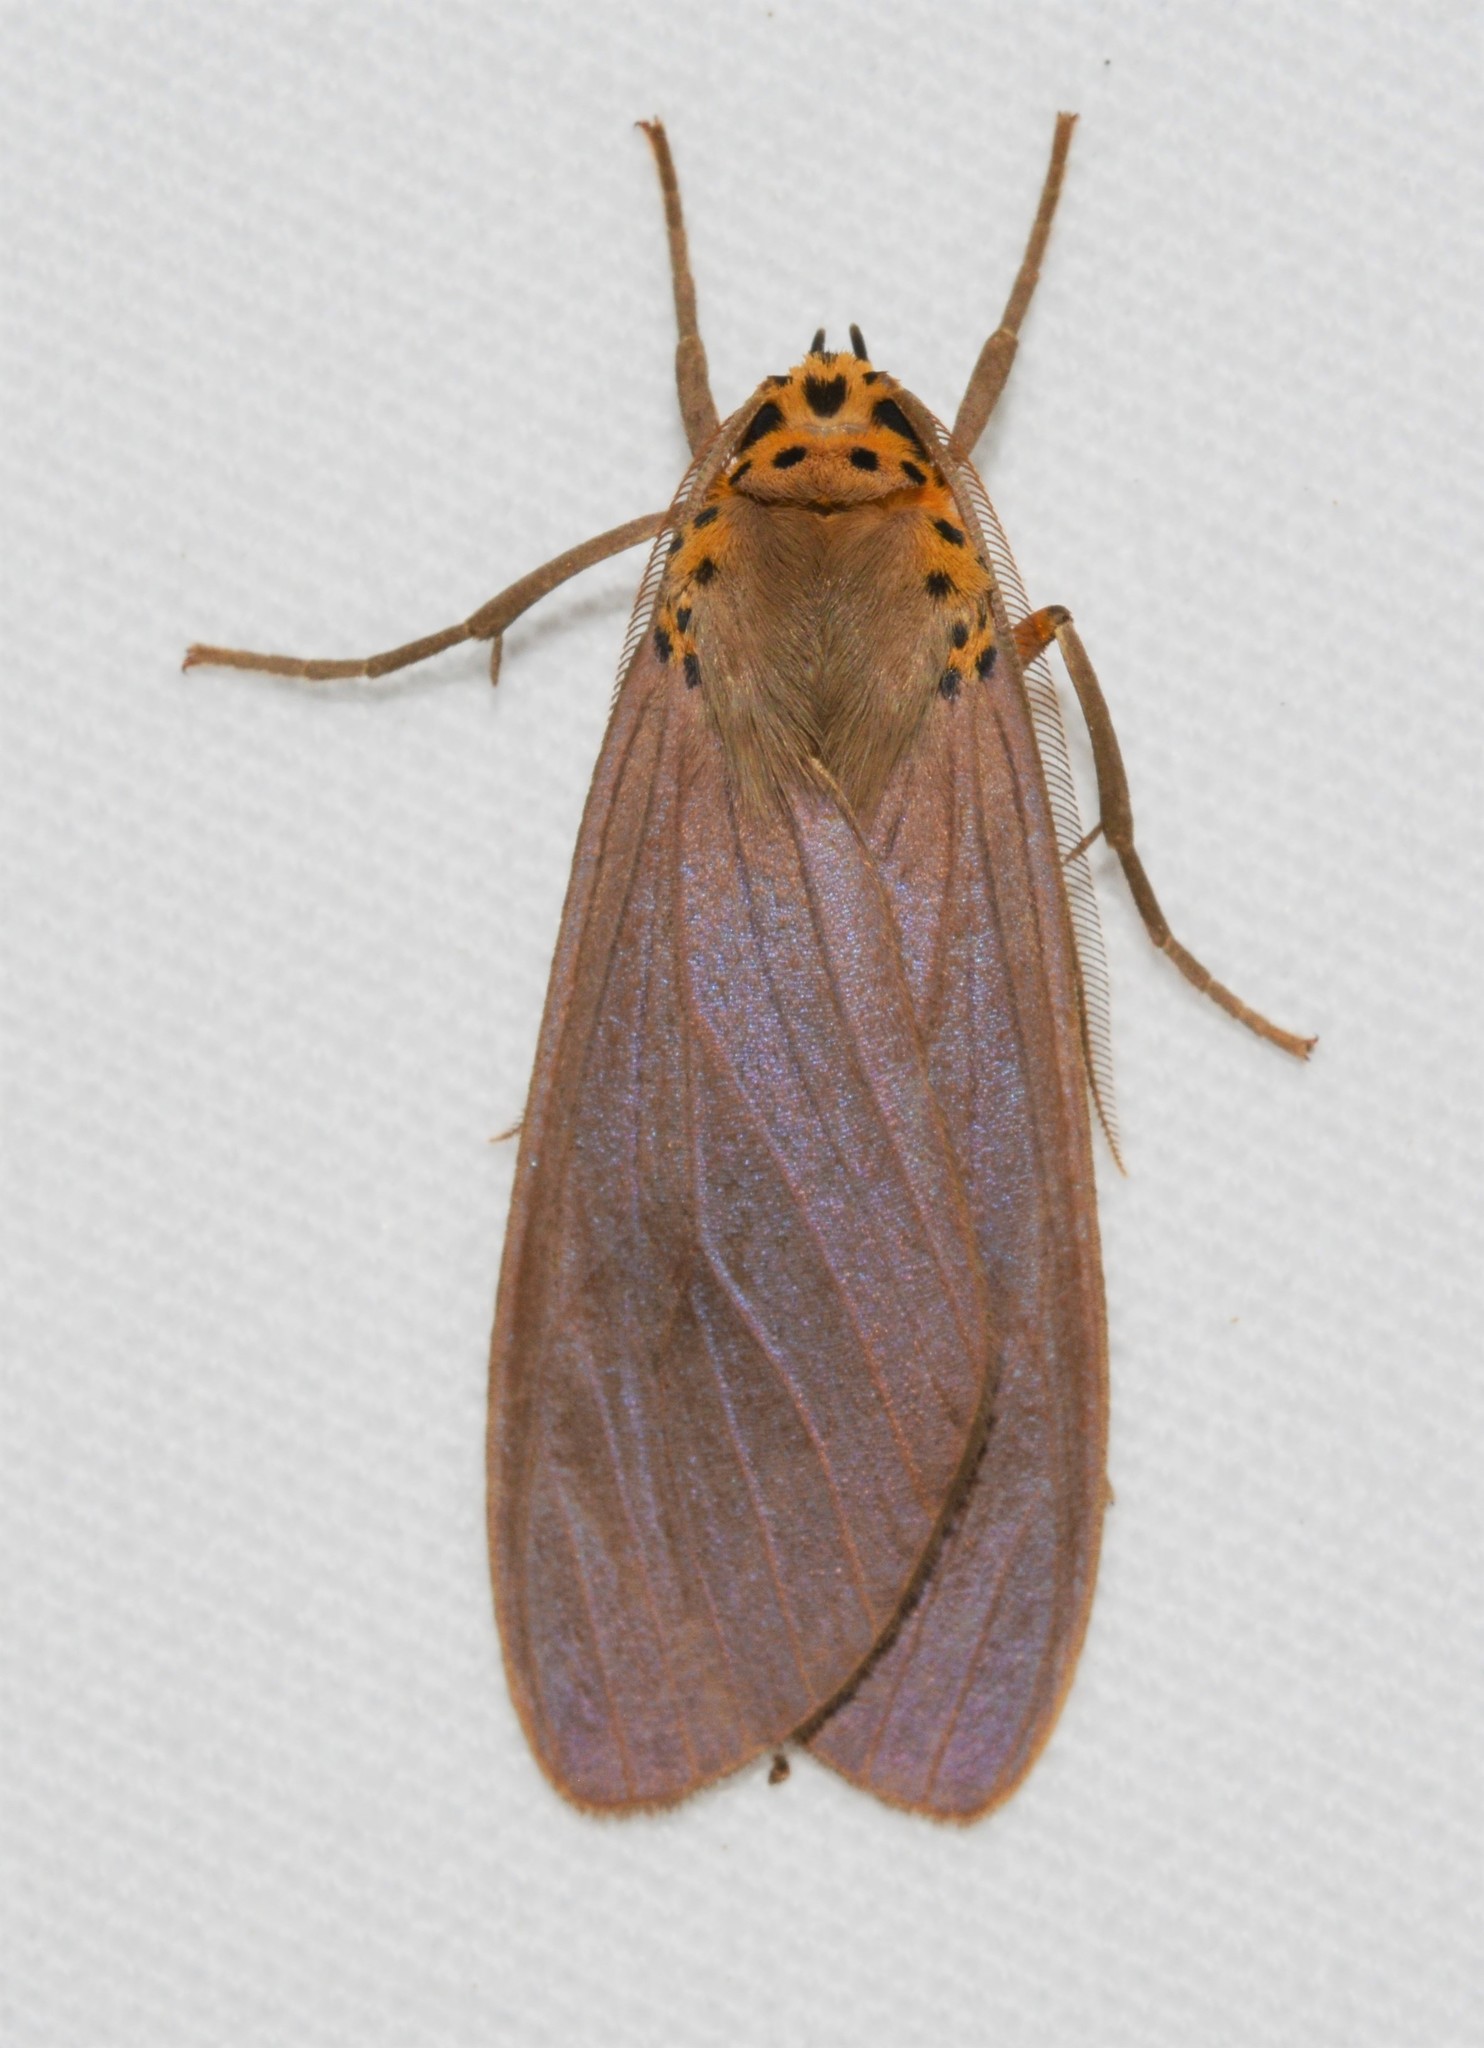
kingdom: Animalia
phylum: Arthropoda
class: Insecta
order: Lepidoptera
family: Erebidae
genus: Pelochyta
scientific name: Pelochyta arontes
